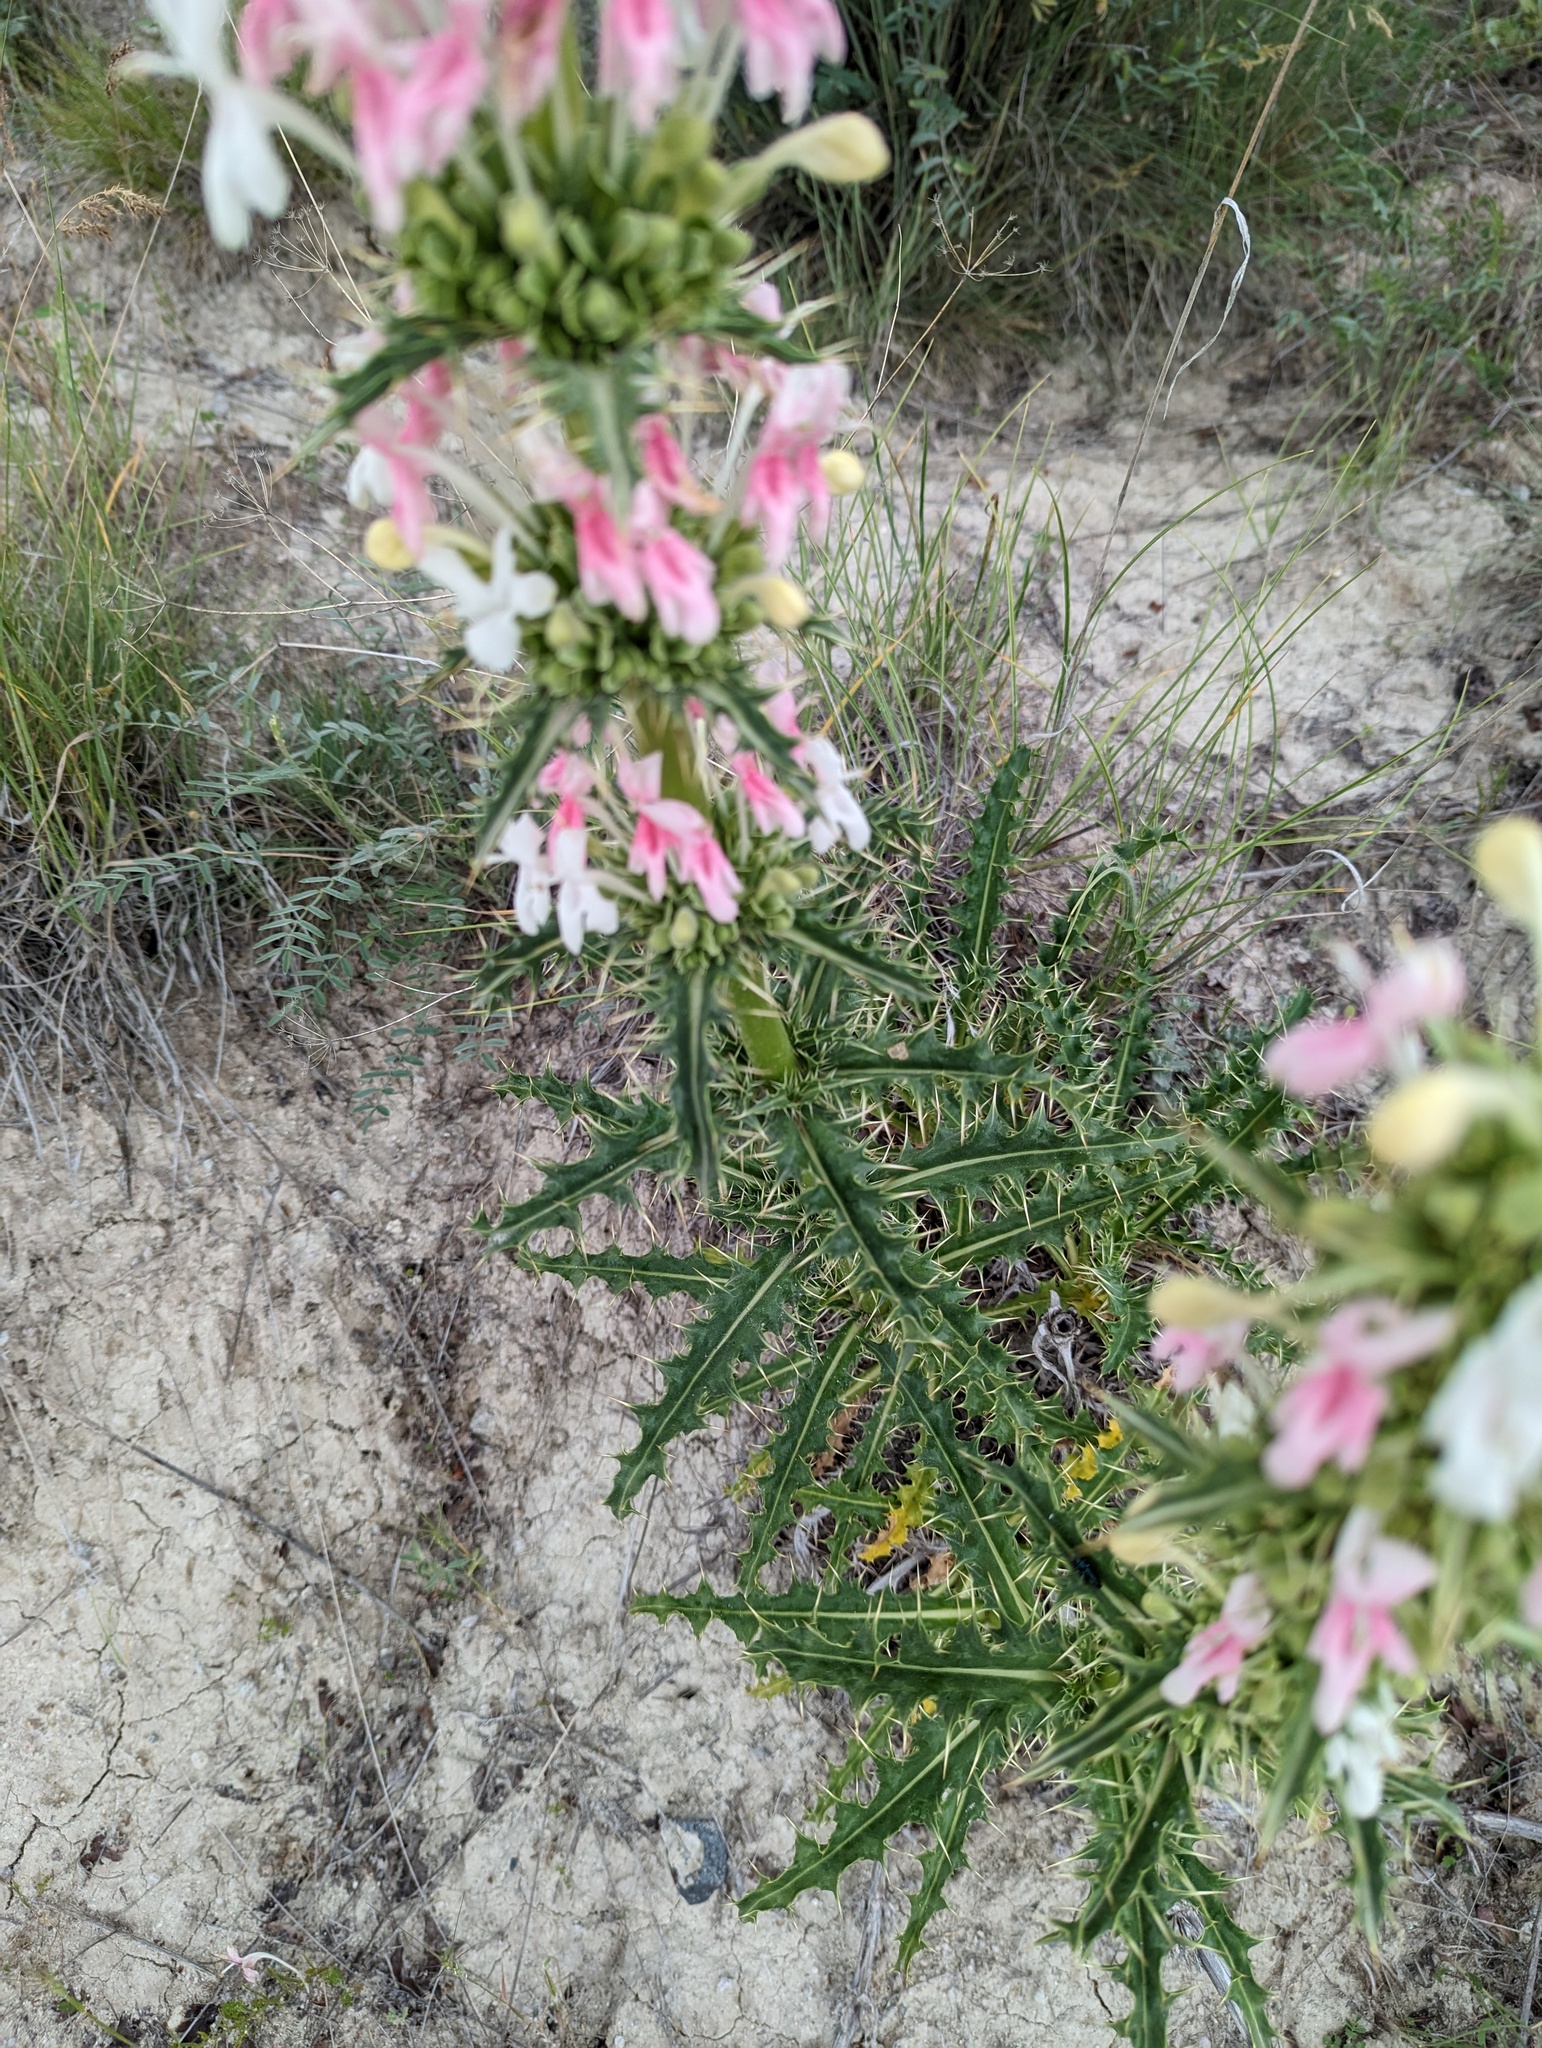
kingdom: Plantae
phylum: Tracheophyta
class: Magnoliopsida
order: Dipsacales
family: Caprifoliaceae
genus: Morina
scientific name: Morina persica
